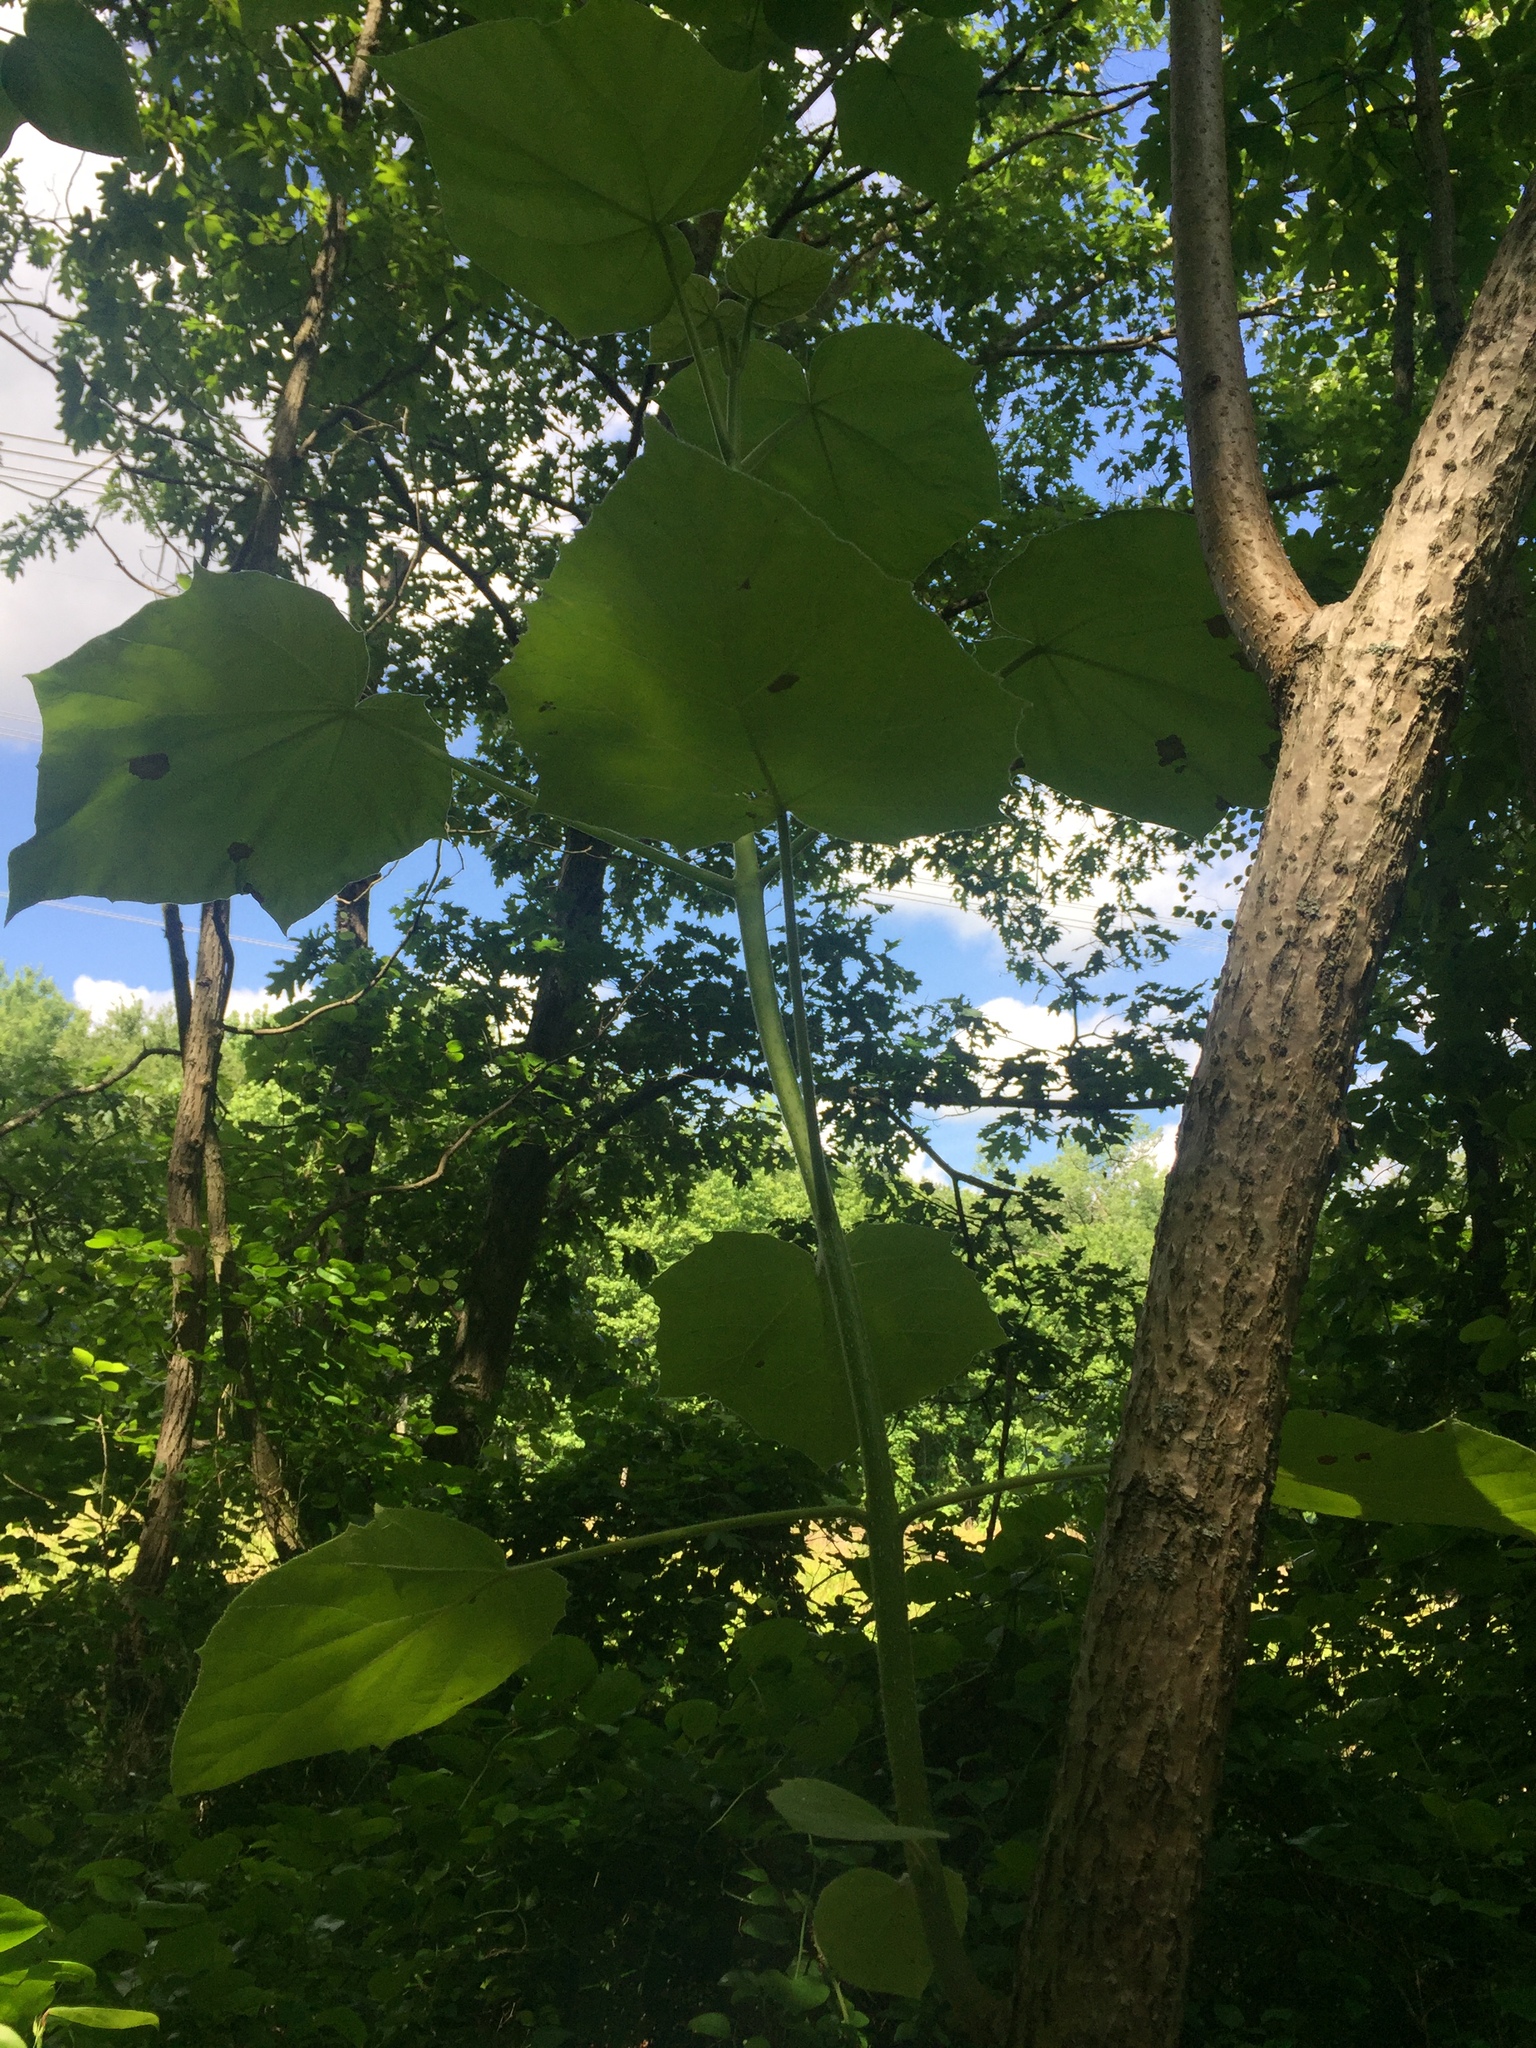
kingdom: Plantae
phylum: Tracheophyta
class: Magnoliopsida
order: Lamiales
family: Paulowniaceae
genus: Paulownia
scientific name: Paulownia tomentosa
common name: Foxglove-tree
